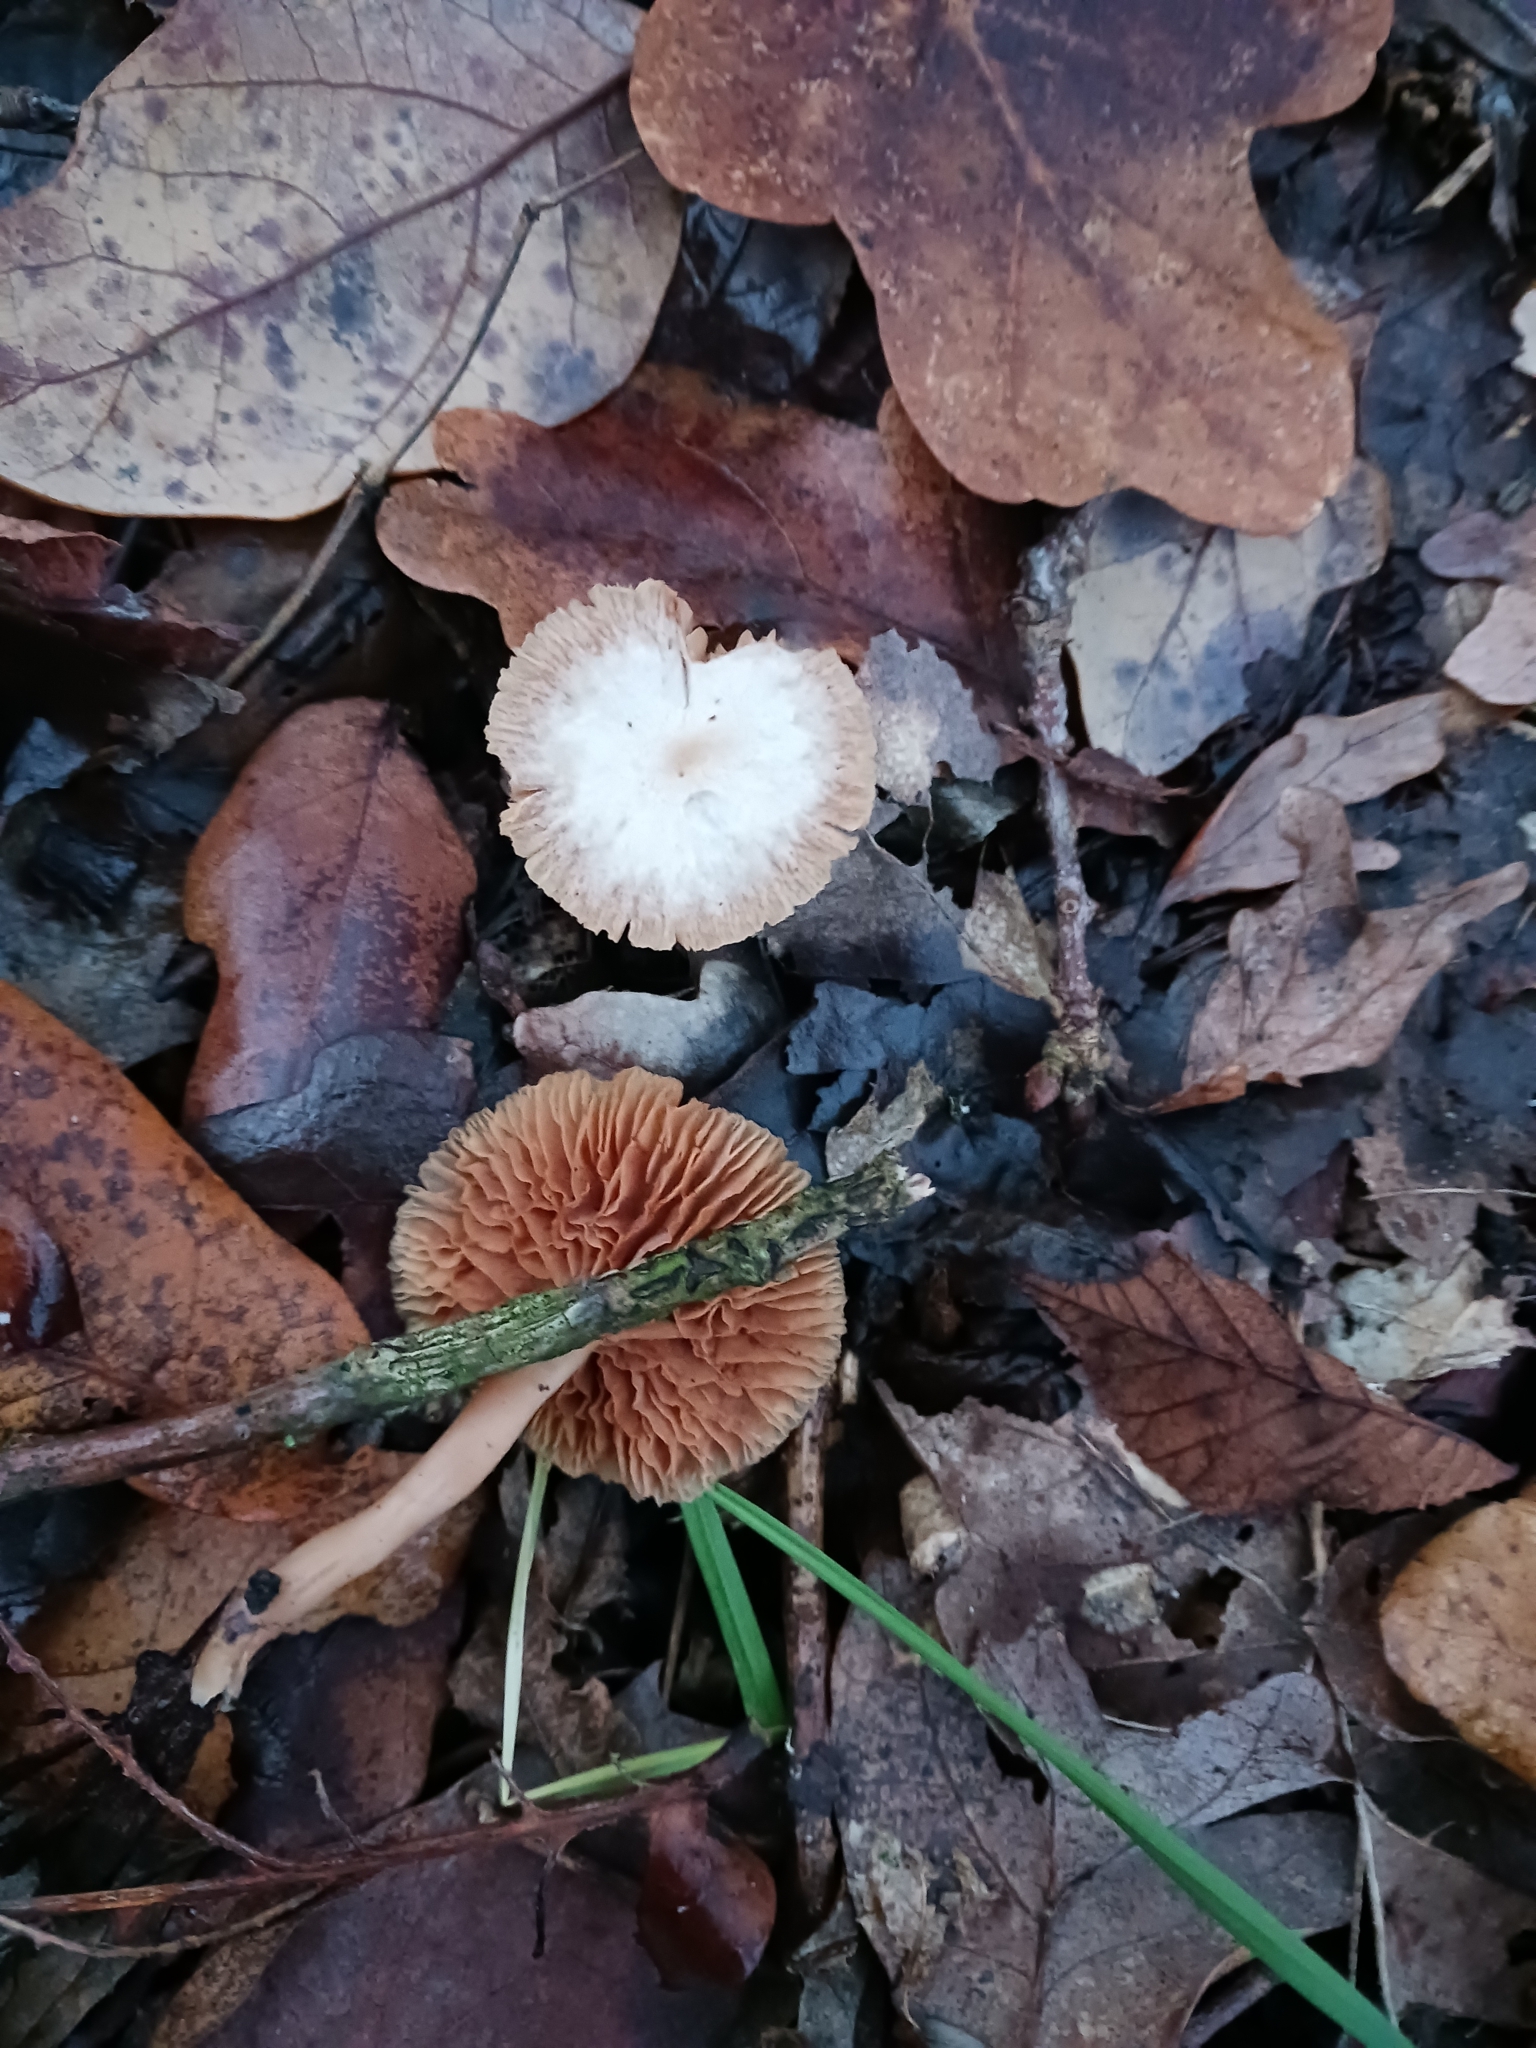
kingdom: Fungi
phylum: Basidiomycota
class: Agaricomycetes
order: Agaricales
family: Tubariaceae
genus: Tubaria
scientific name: Tubaria furfuracea
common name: Scurfy twiglet
